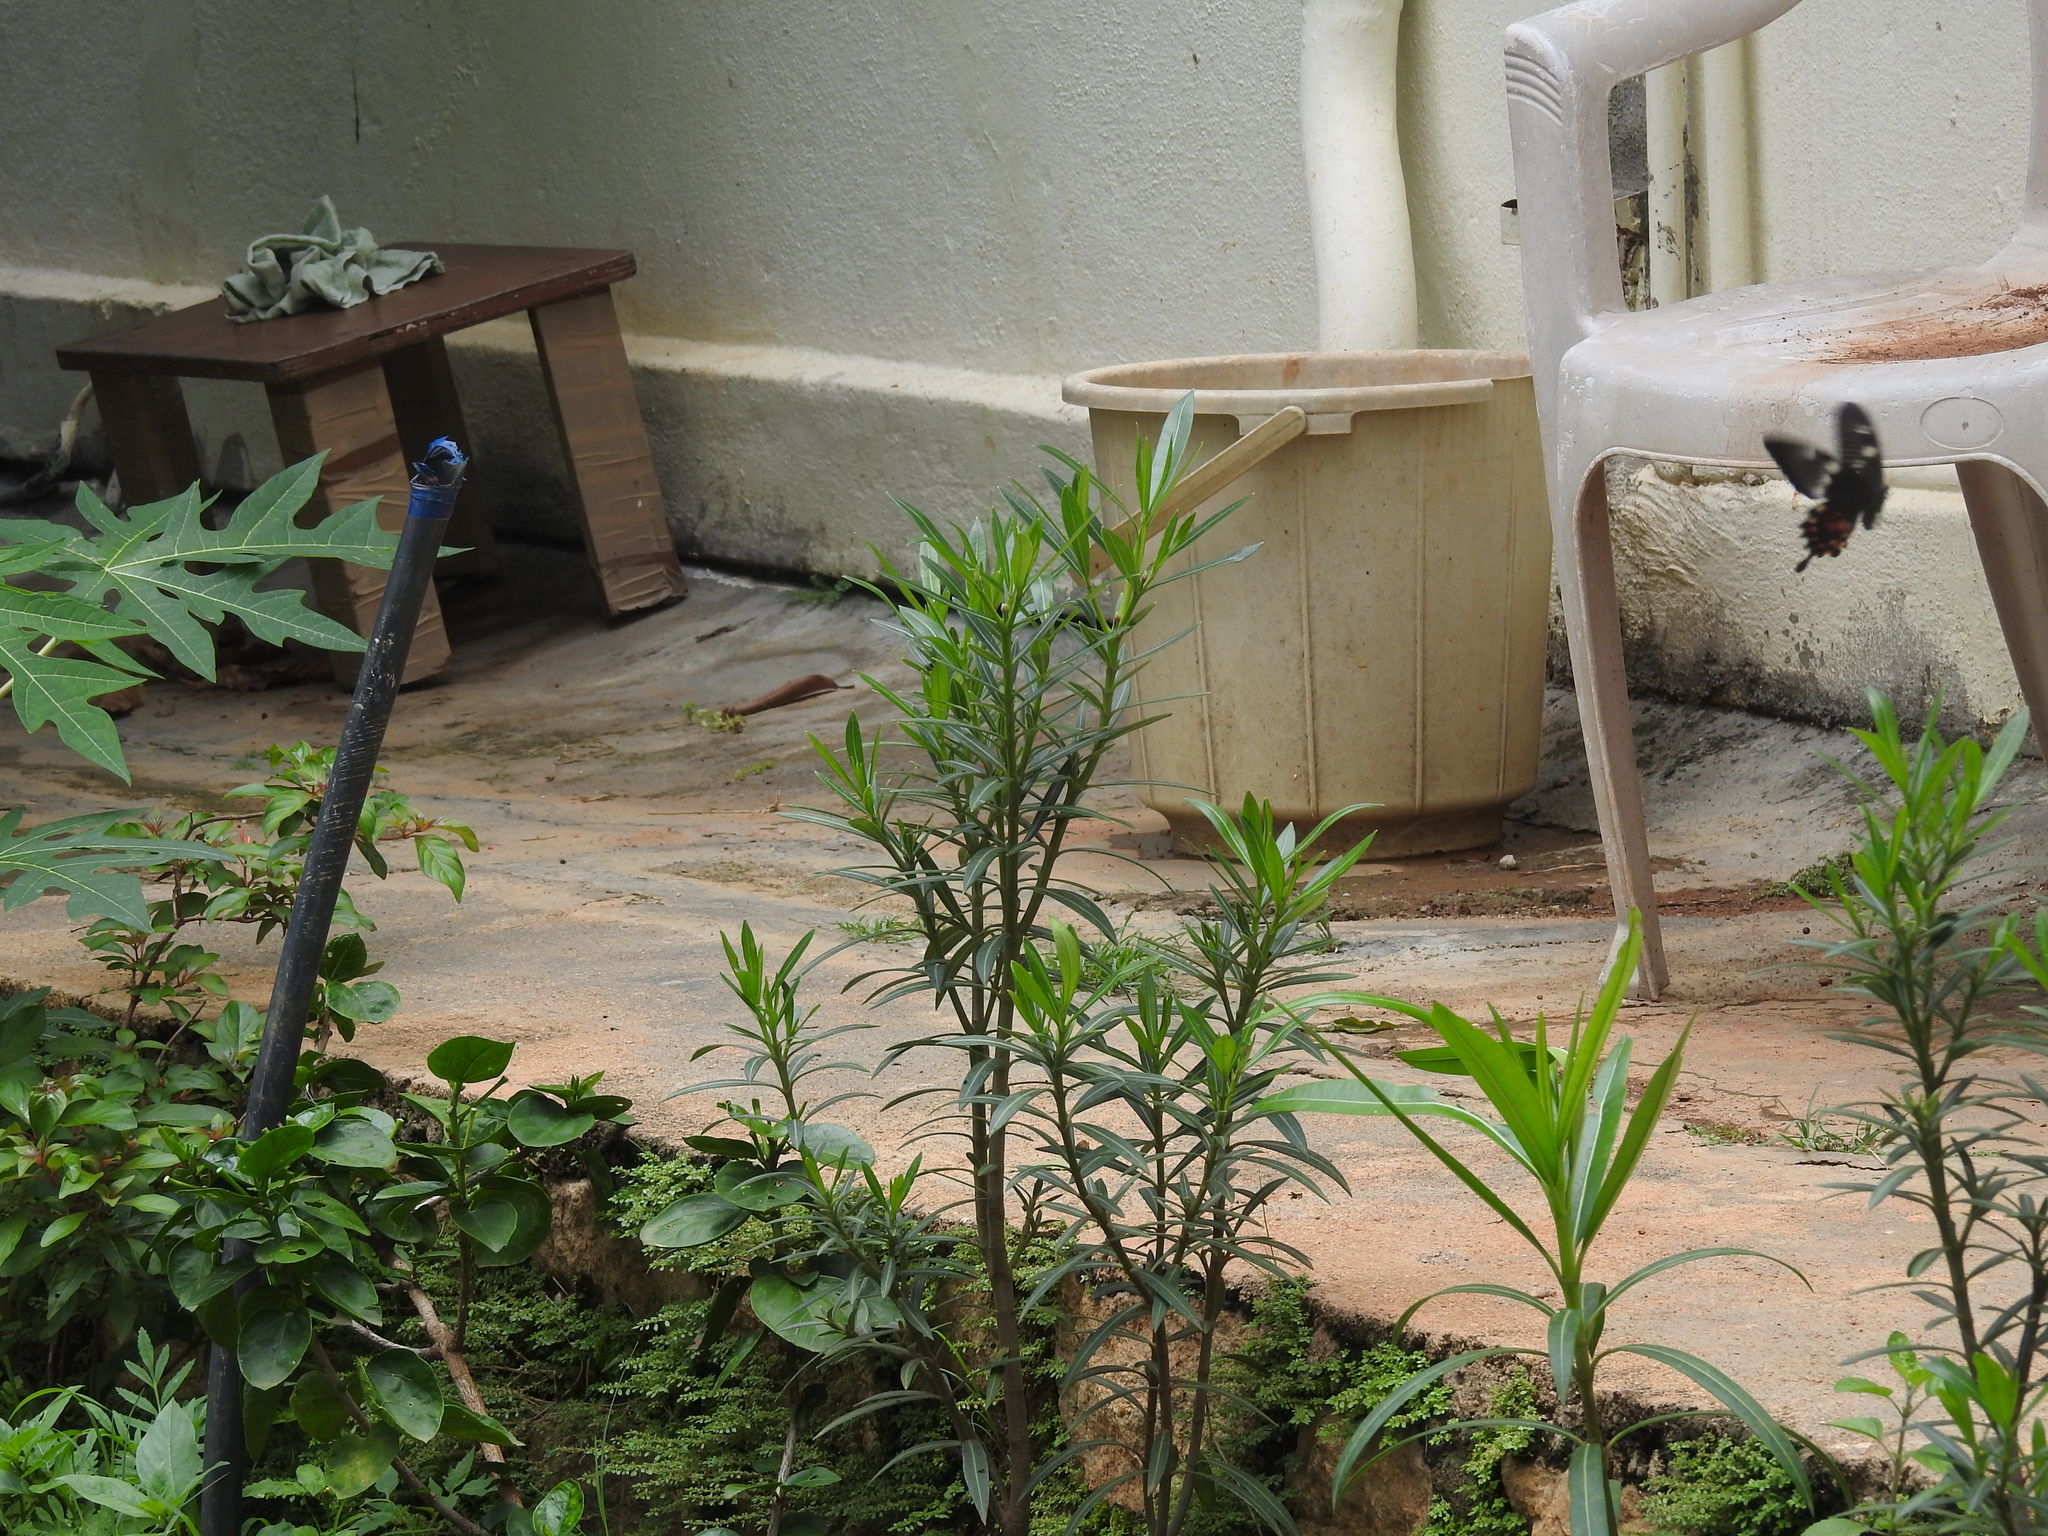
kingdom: Animalia
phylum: Arthropoda
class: Insecta
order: Lepidoptera
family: Papilionidae
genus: Papilio
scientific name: Papilio polytes
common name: Common mormon
